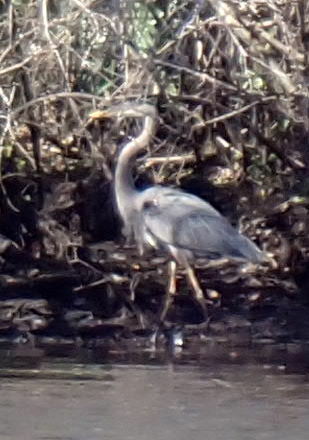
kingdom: Animalia
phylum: Chordata
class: Aves
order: Pelecaniformes
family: Ardeidae
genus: Ardea
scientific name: Ardea herodias
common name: Great blue heron
